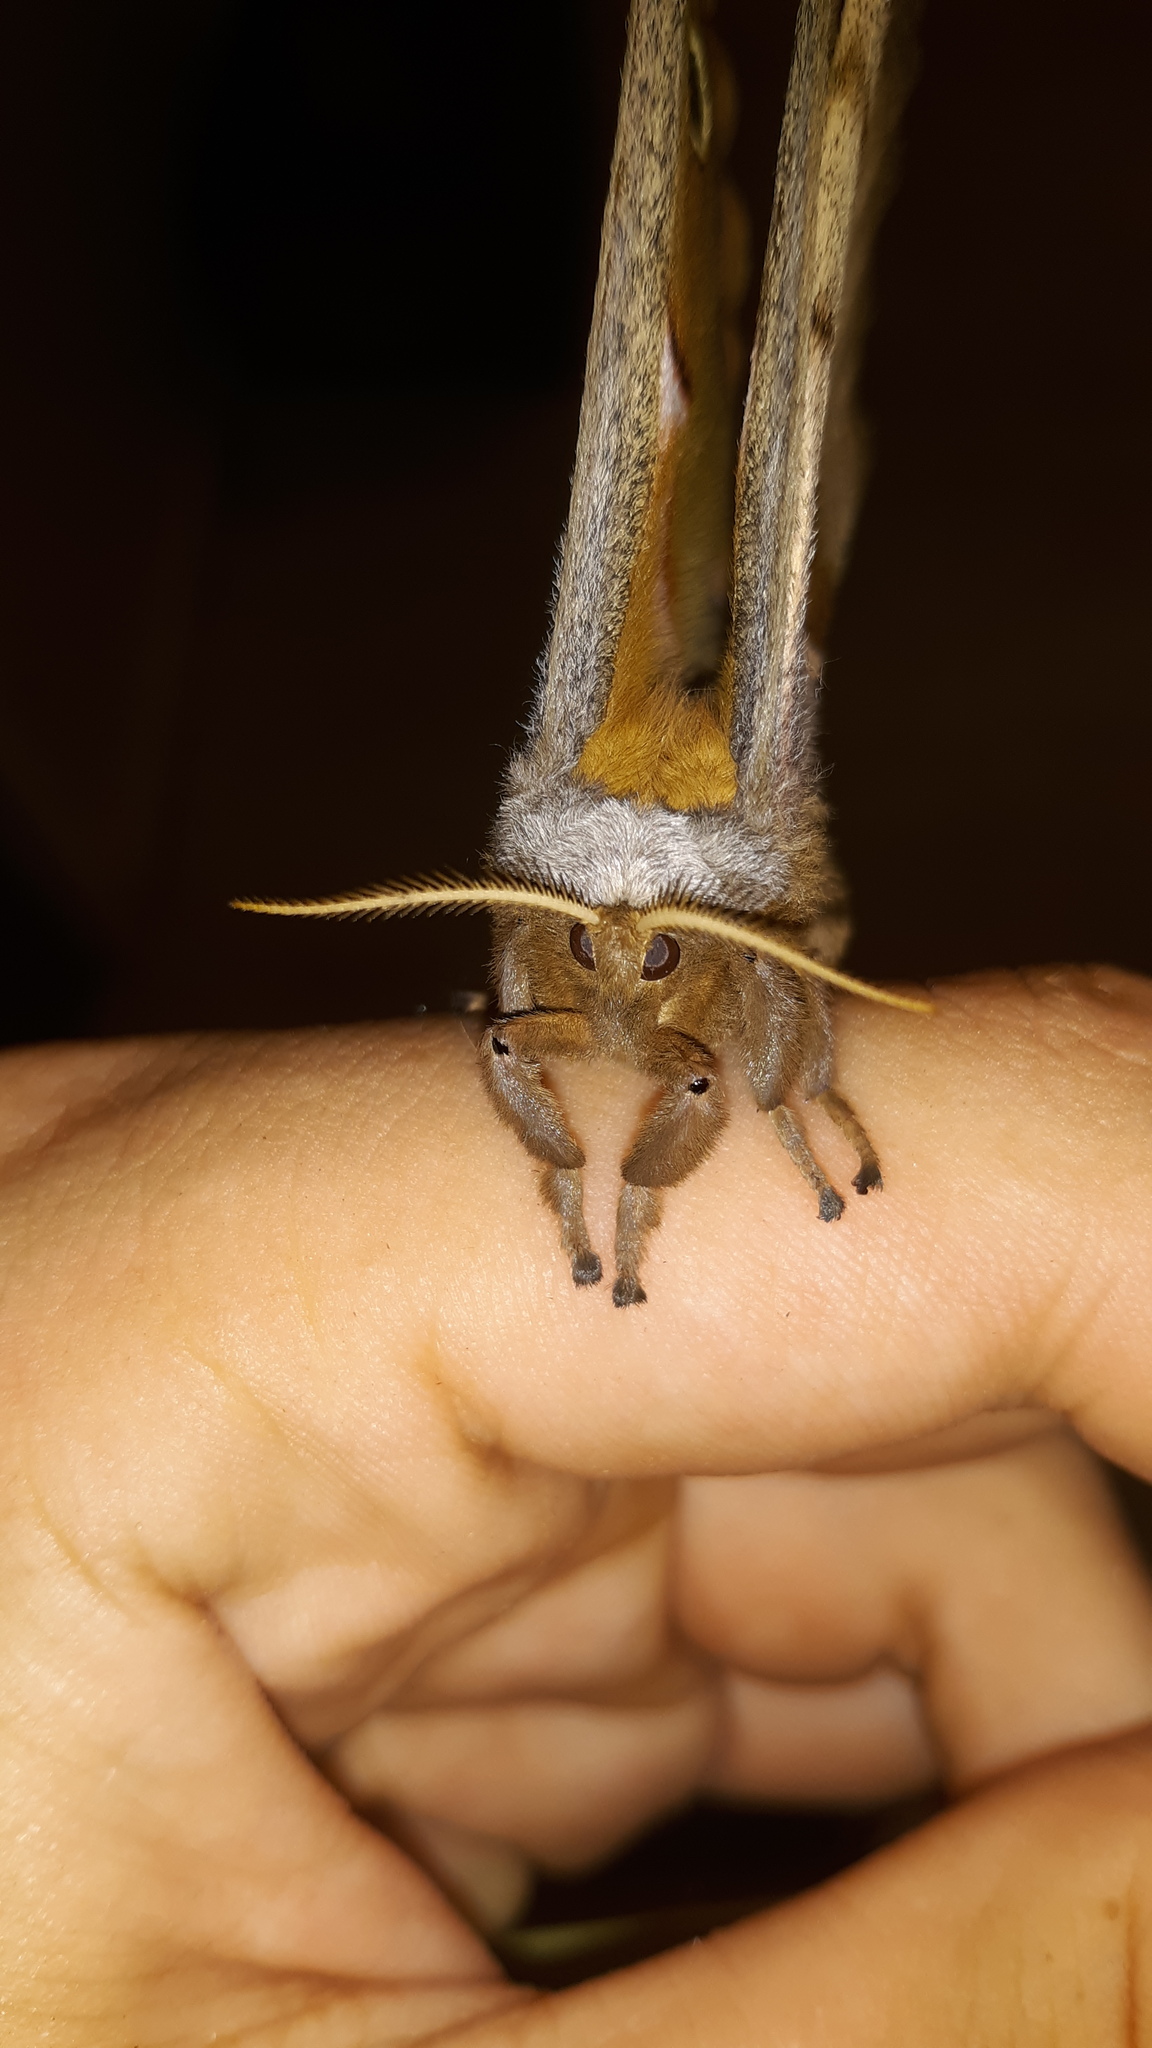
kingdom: Animalia
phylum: Arthropoda
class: Insecta
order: Lepidoptera
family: Saturniidae
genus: Antheraea
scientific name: Antheraea polyphemus
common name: Polyphemus moth
